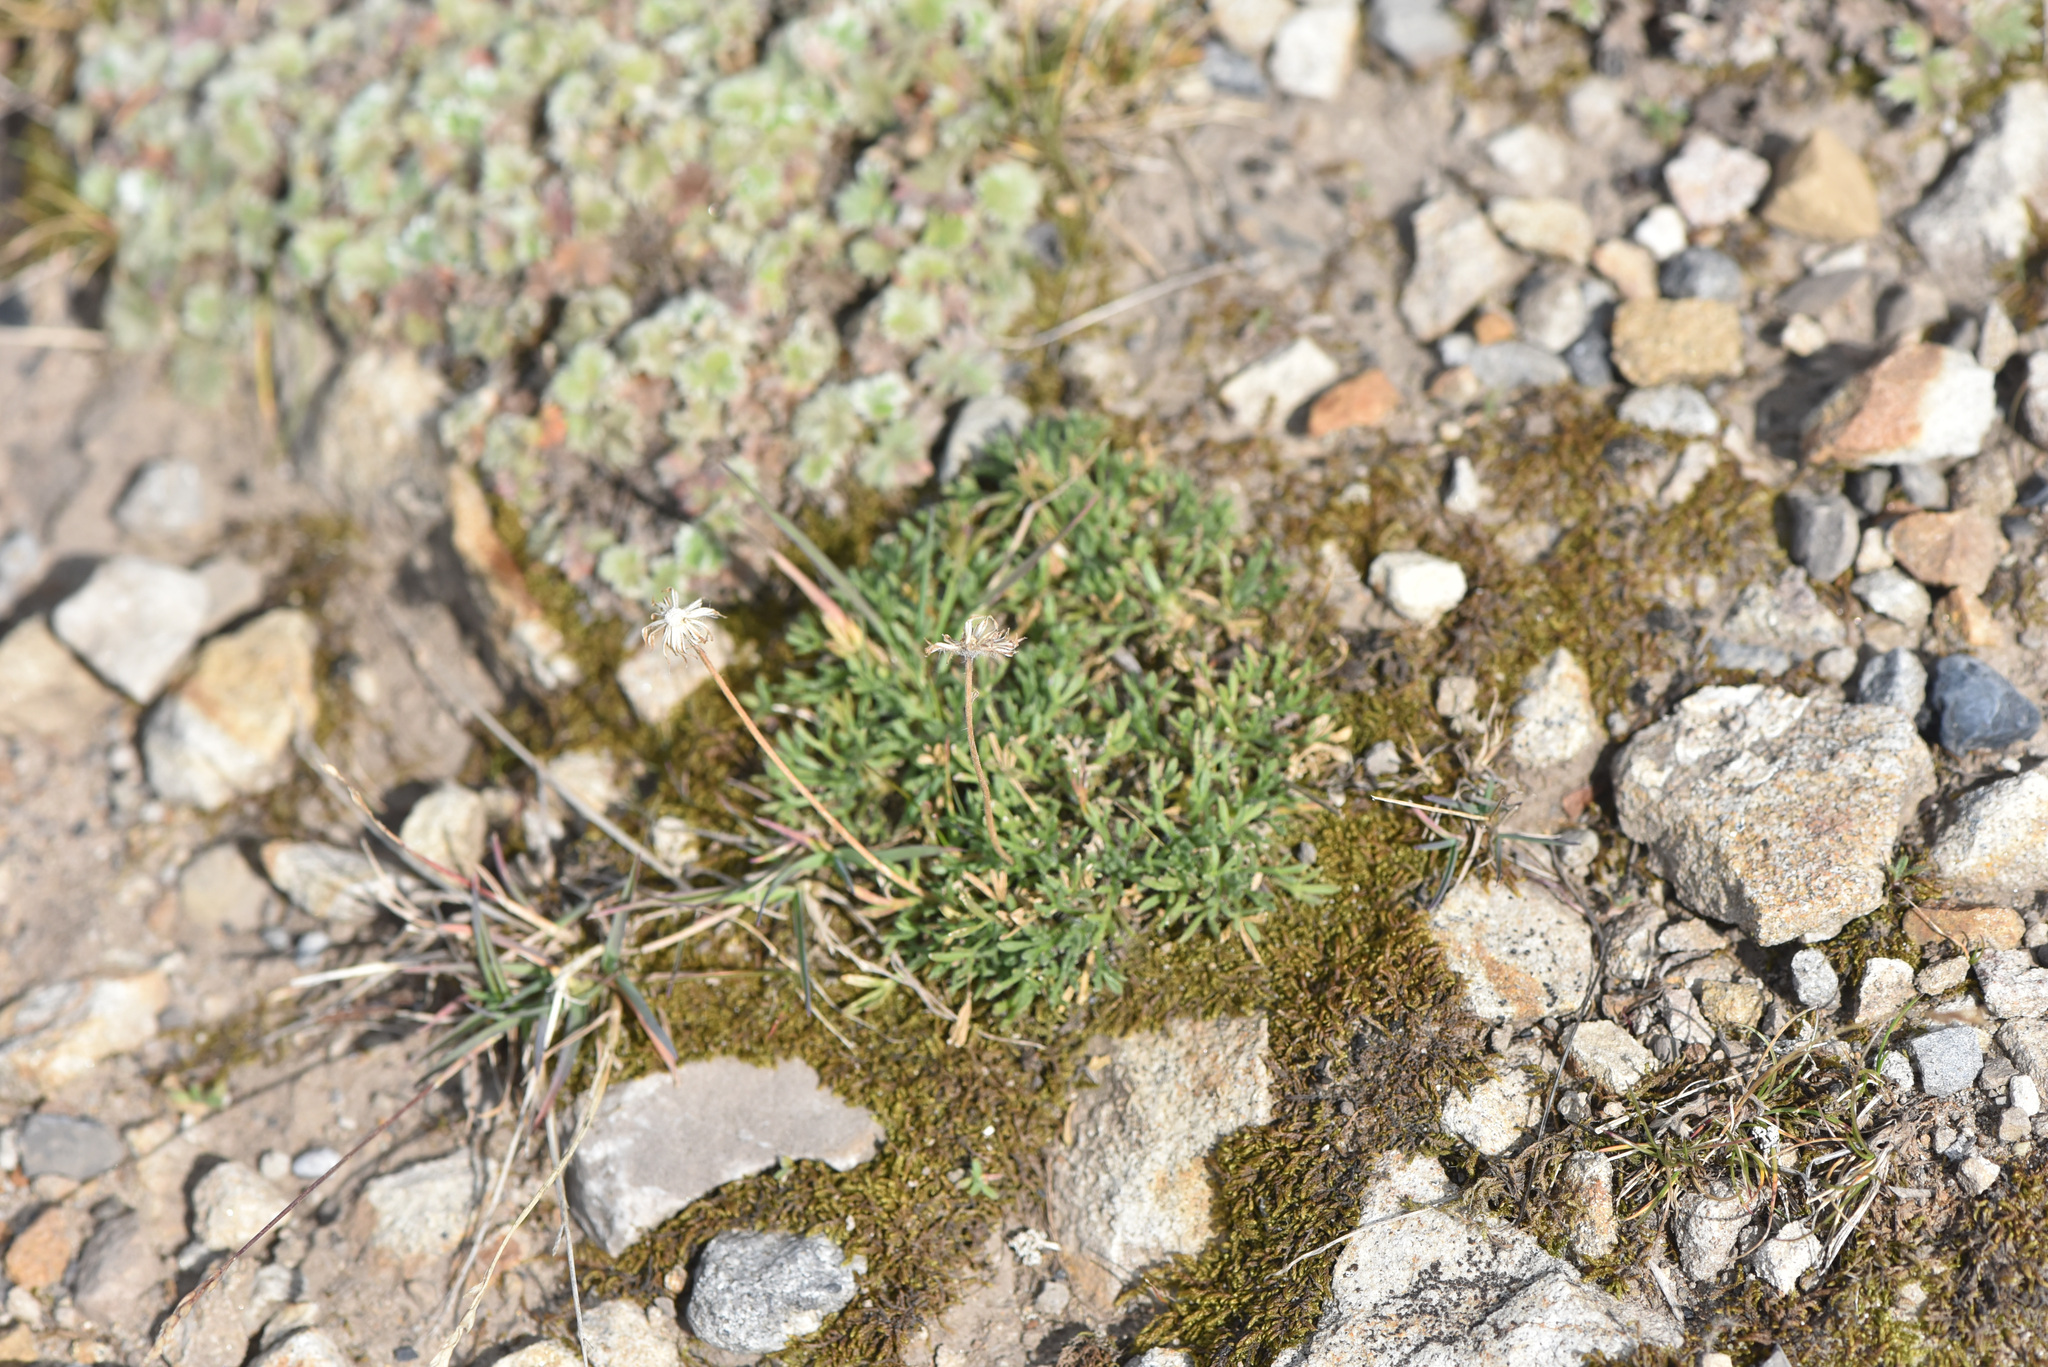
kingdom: Plantae
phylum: Tracheophyta
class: Magnoliopsida
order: Asterales
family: Asteraceae
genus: Erigeron
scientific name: Erigeron compositus
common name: Dwarf mountain fleabane
